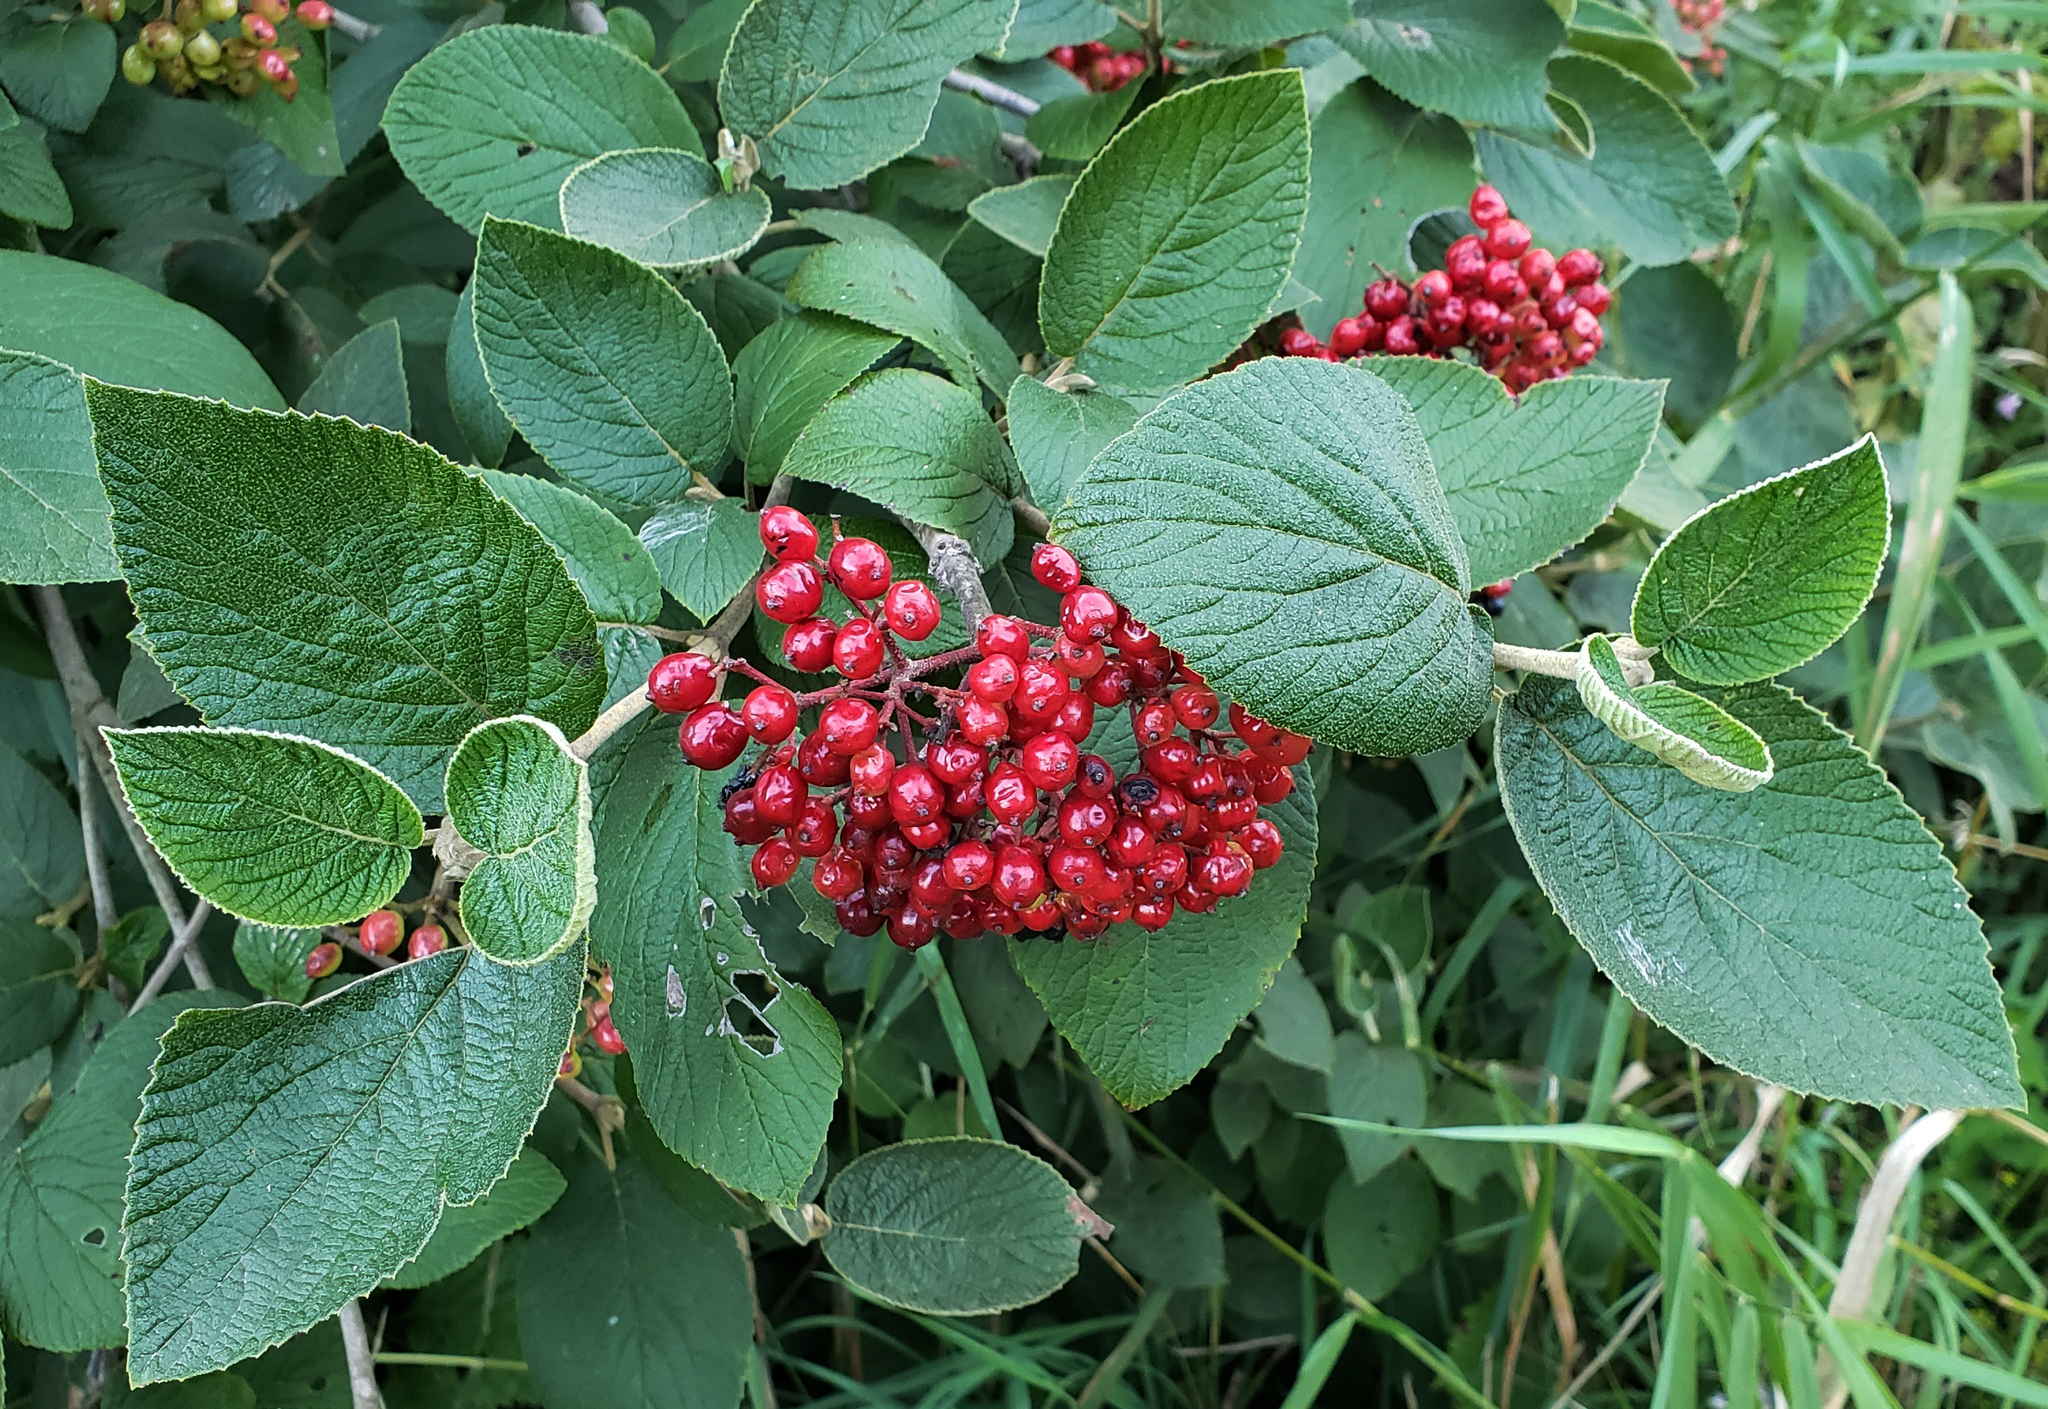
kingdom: Plantae
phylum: Tracheophyta
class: Magnoliopsida
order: Dipsacales
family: Viburnaceae
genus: Viburnum
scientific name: Viburnum lantana
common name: Wayfaring tree
